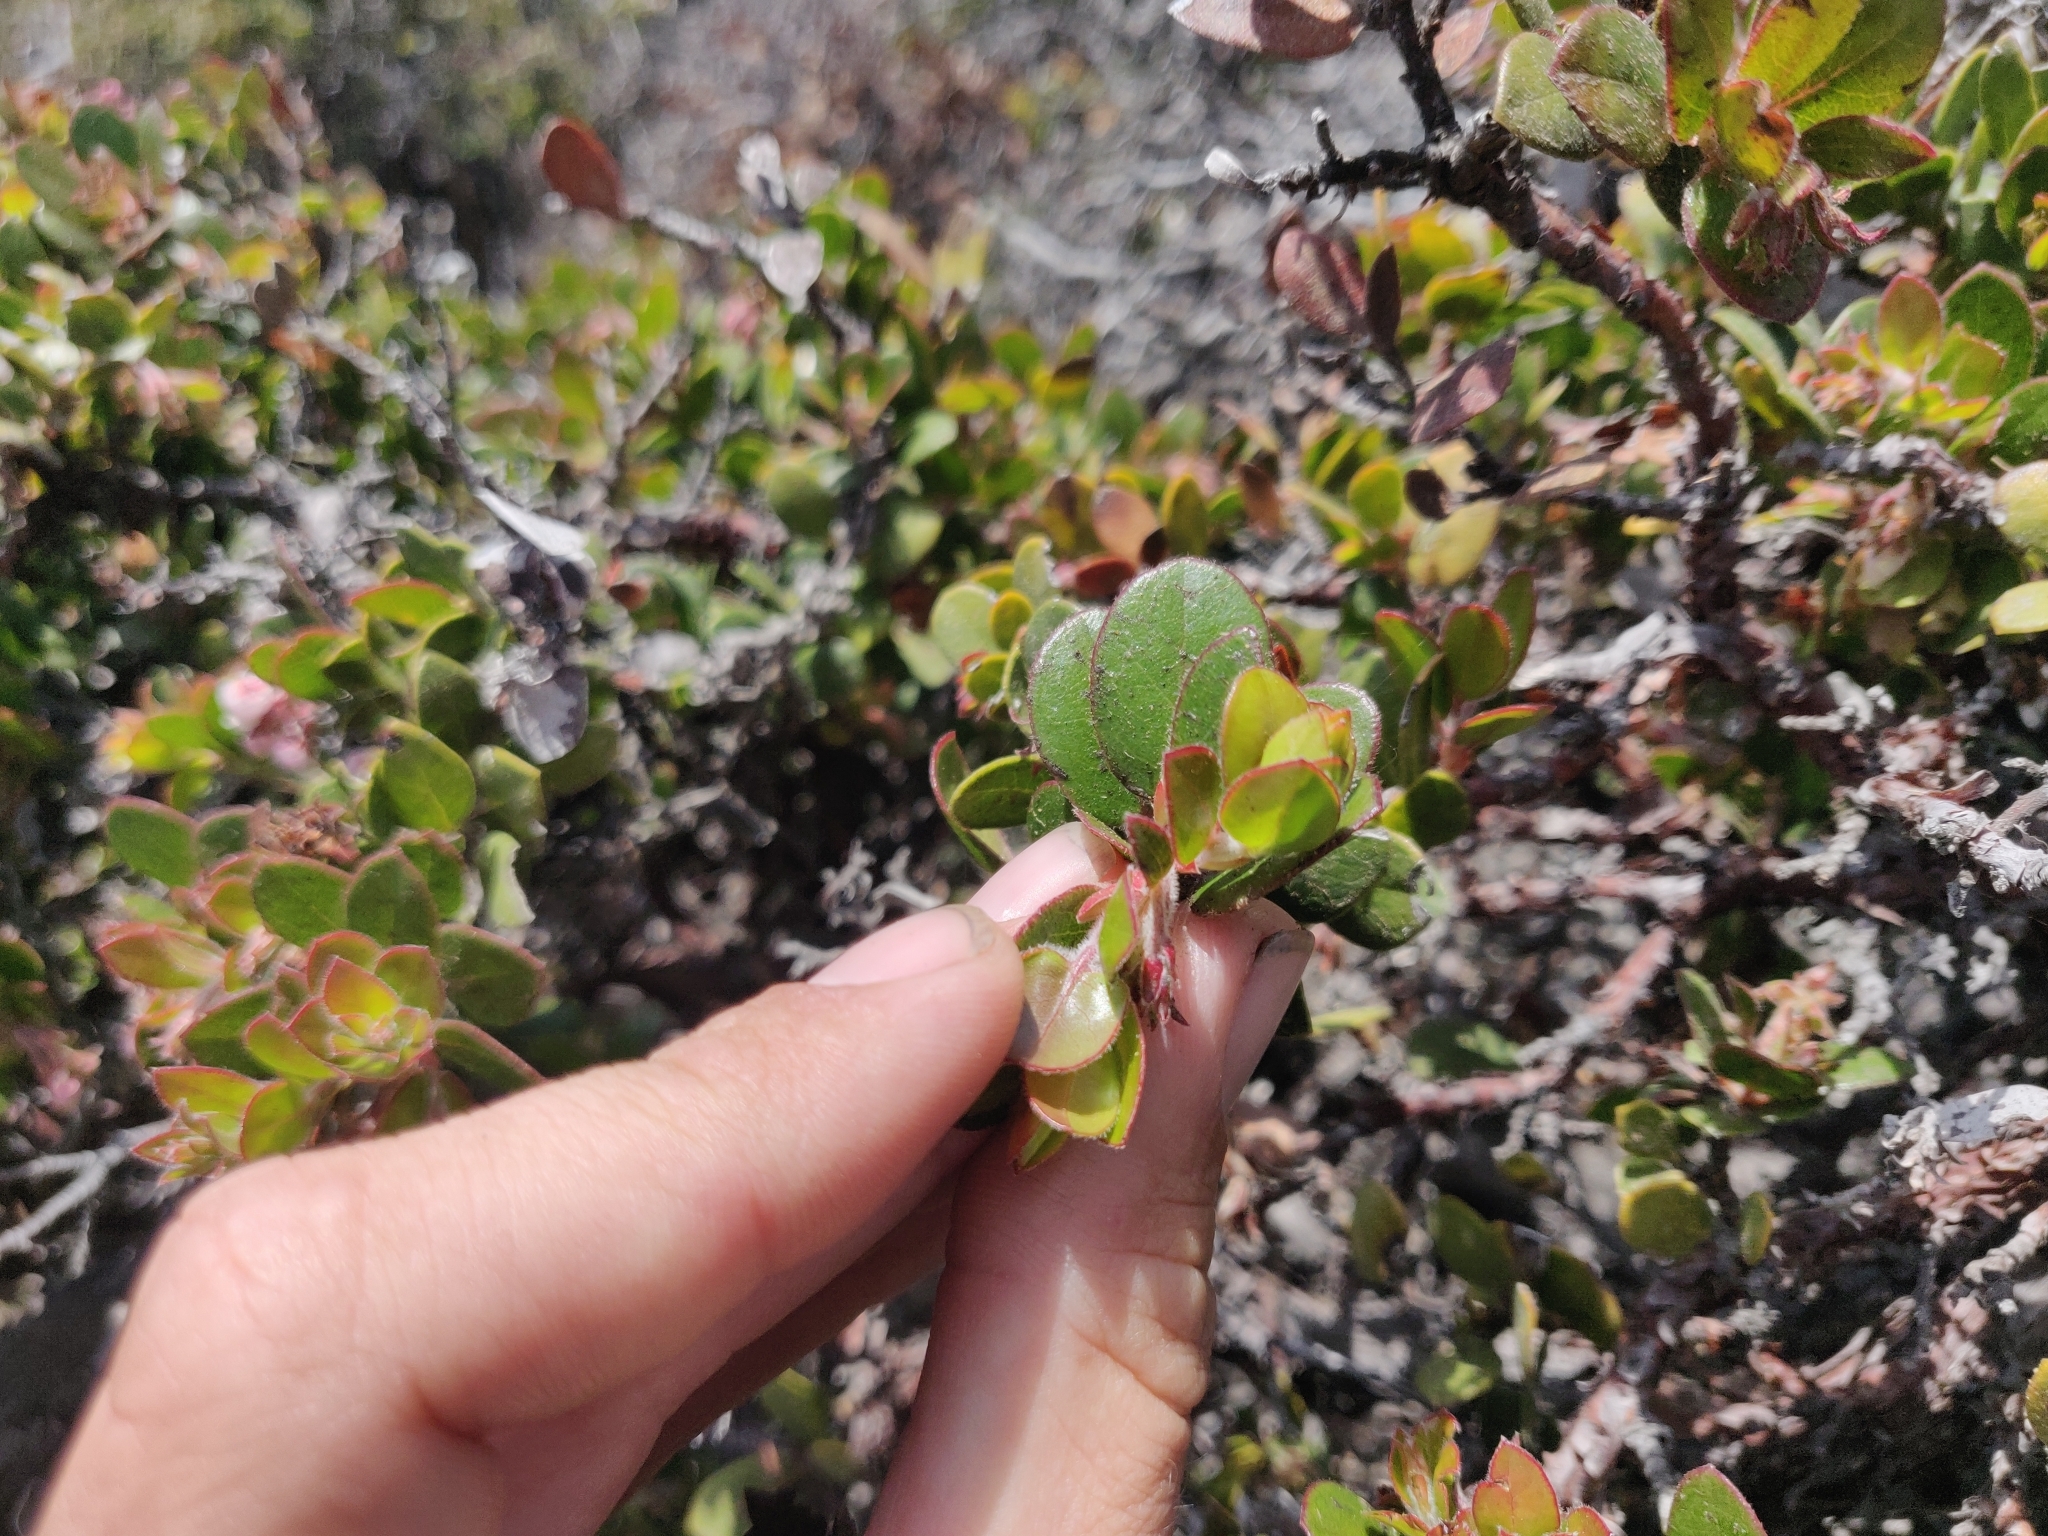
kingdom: Plantae
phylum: Tracheophyta
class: Magnoliopsida
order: Ericales
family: Ericaceae
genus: Arctostaphylos
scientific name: Arctostaphylos edmundsii
